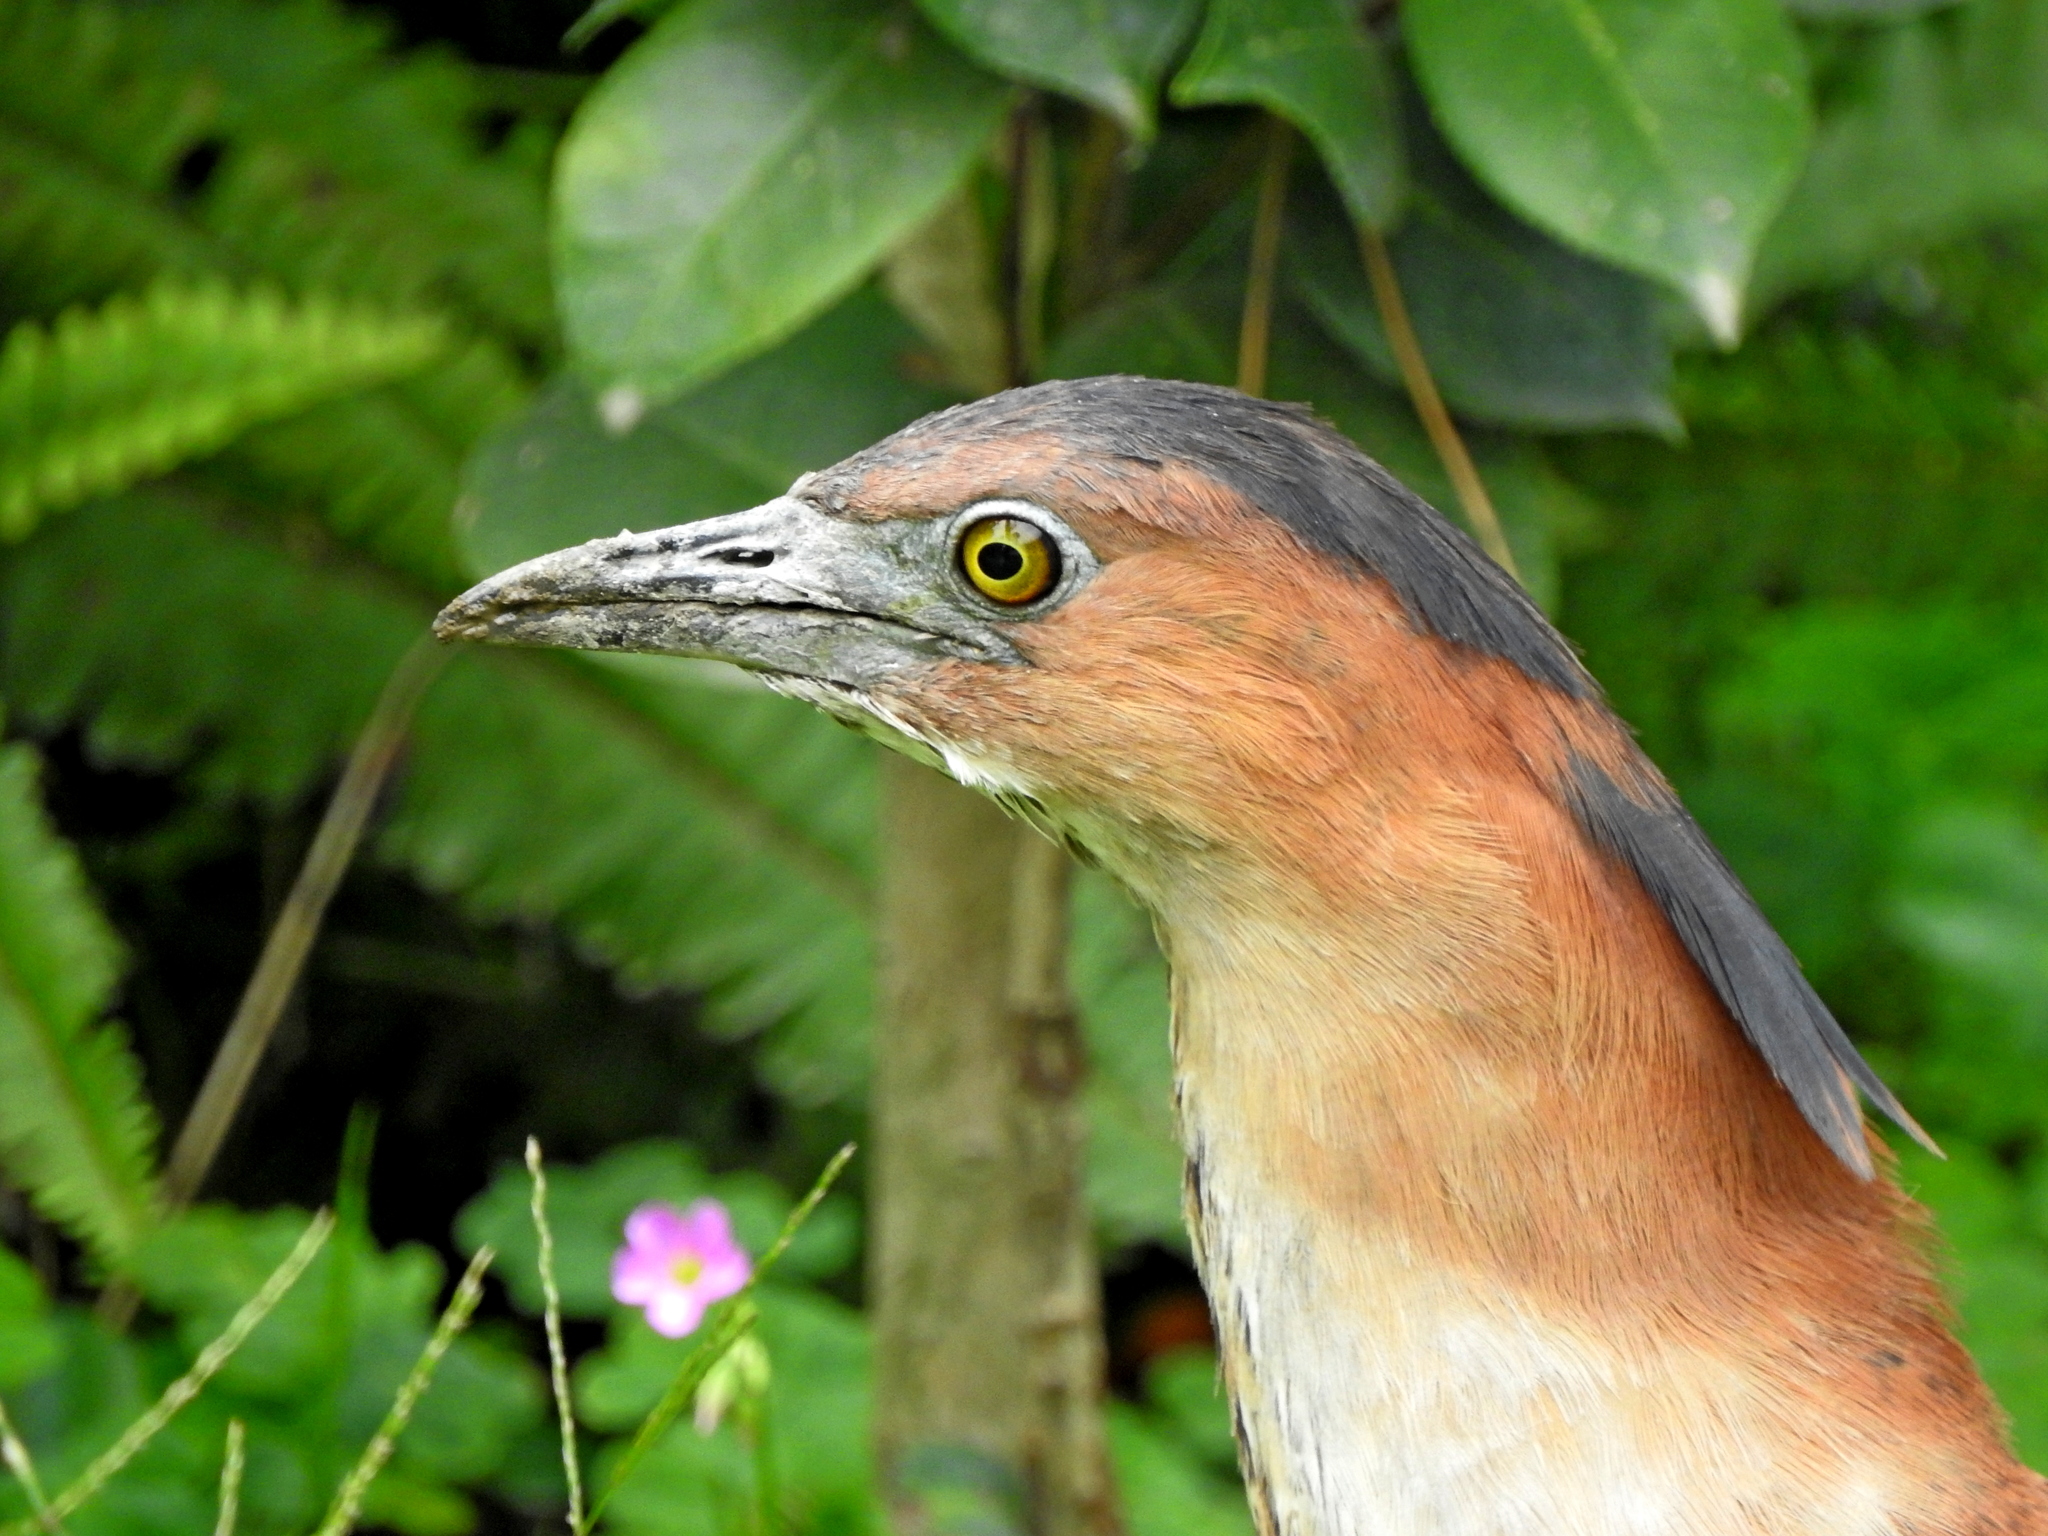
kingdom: Animalia
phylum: Chordata
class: Aves
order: Pelecaniformes
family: Ardeidae
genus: Gorsachius
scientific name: Gorsachius melanolophus
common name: Malayan night heron
